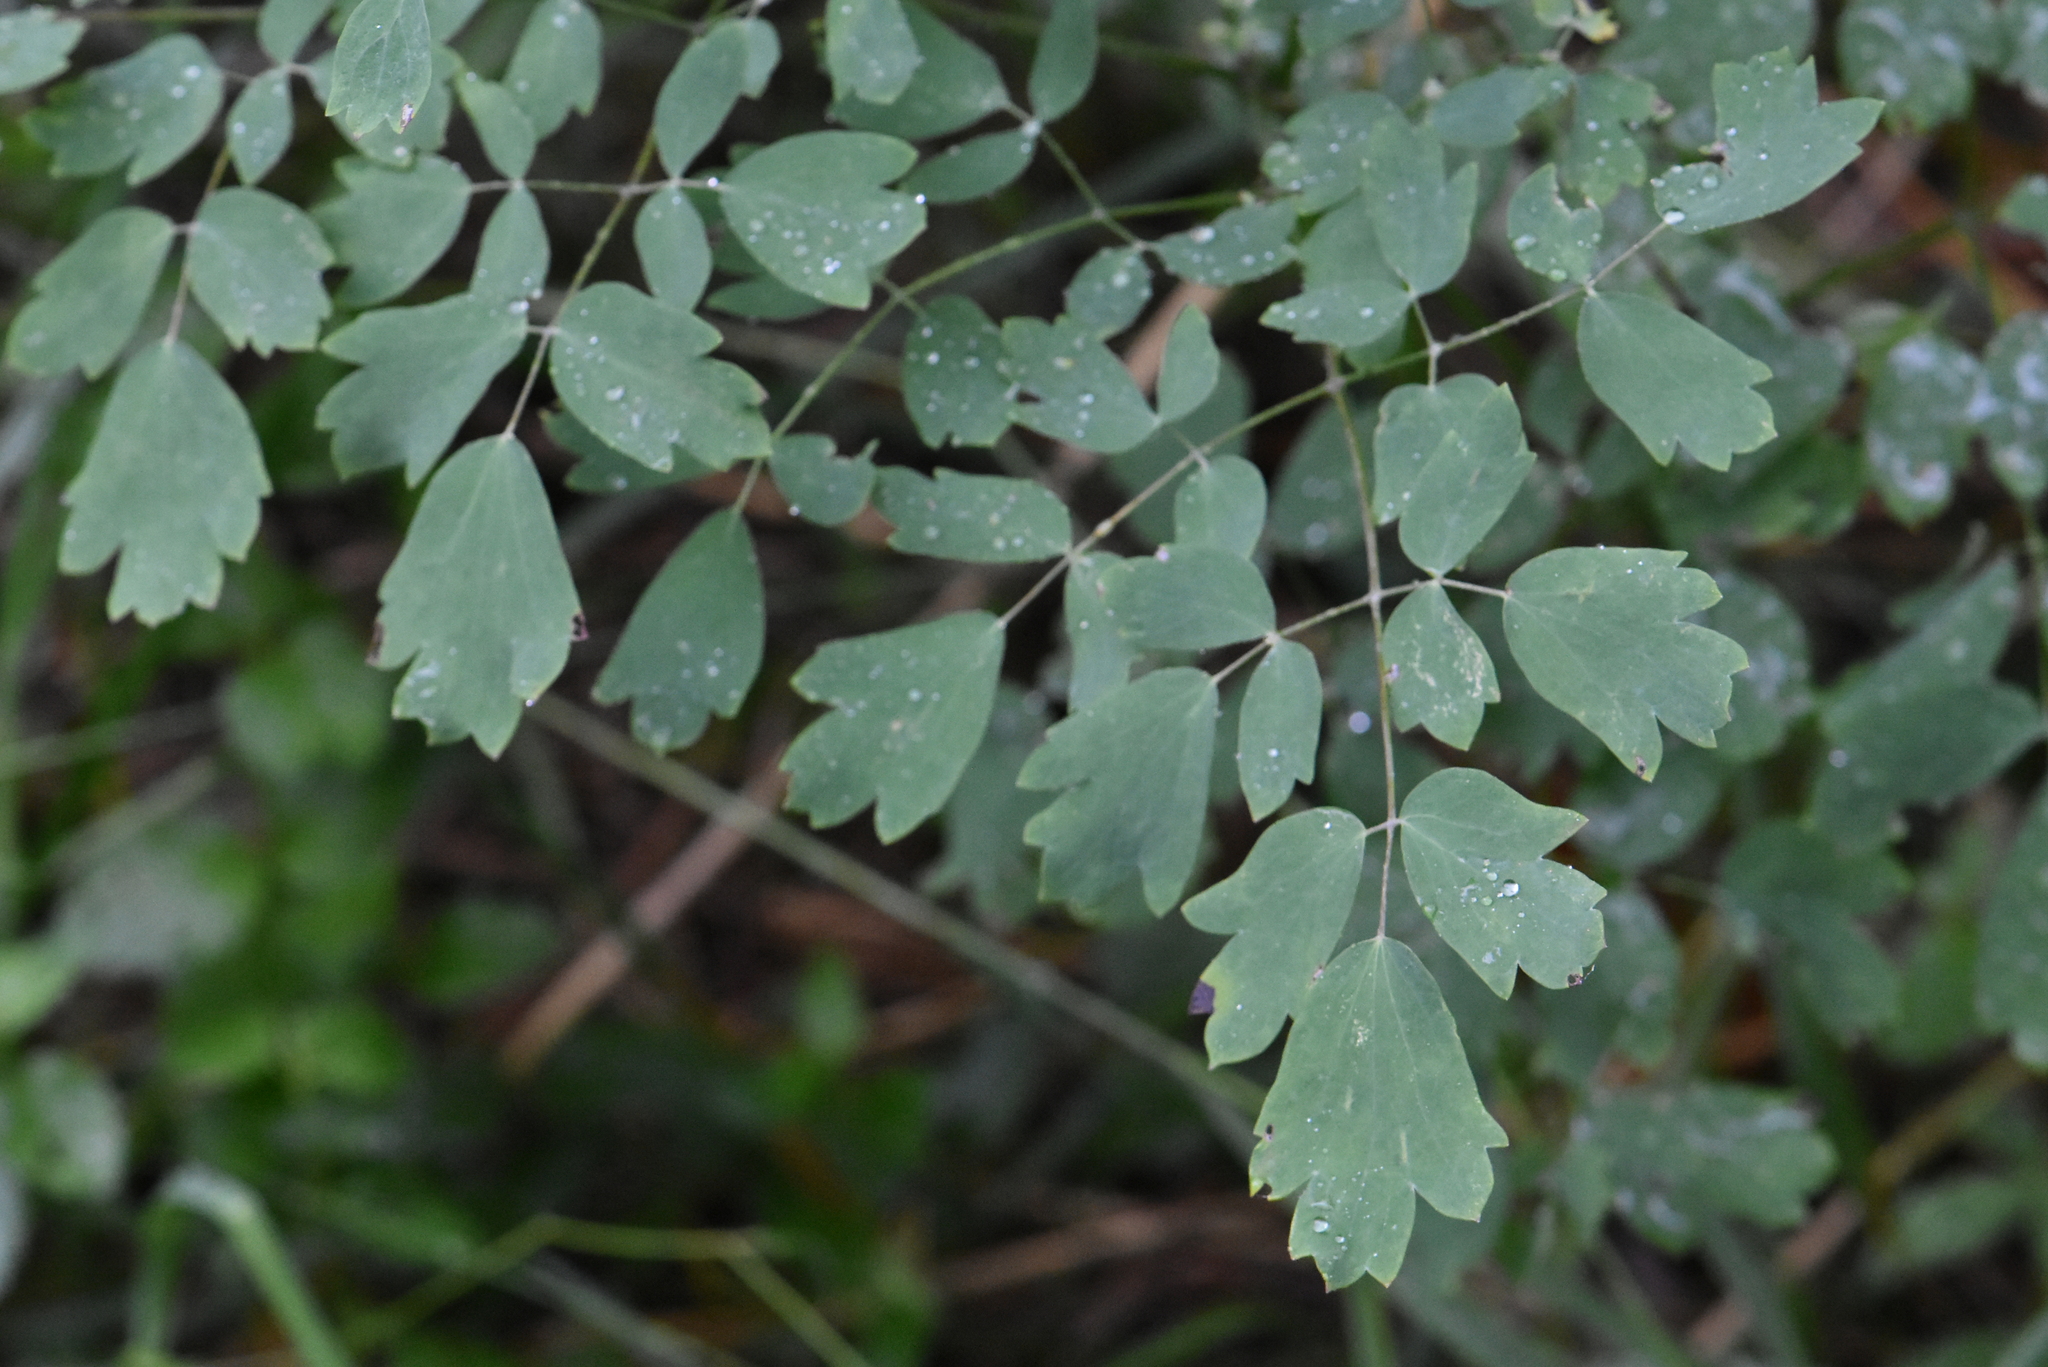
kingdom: Plantae
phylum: Tracheophyta
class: Magnoliopsida
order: Ranunculales
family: Ranunculaceae
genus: Thalictrum
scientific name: Thalictrum minus
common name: Lesser meadow-rue
